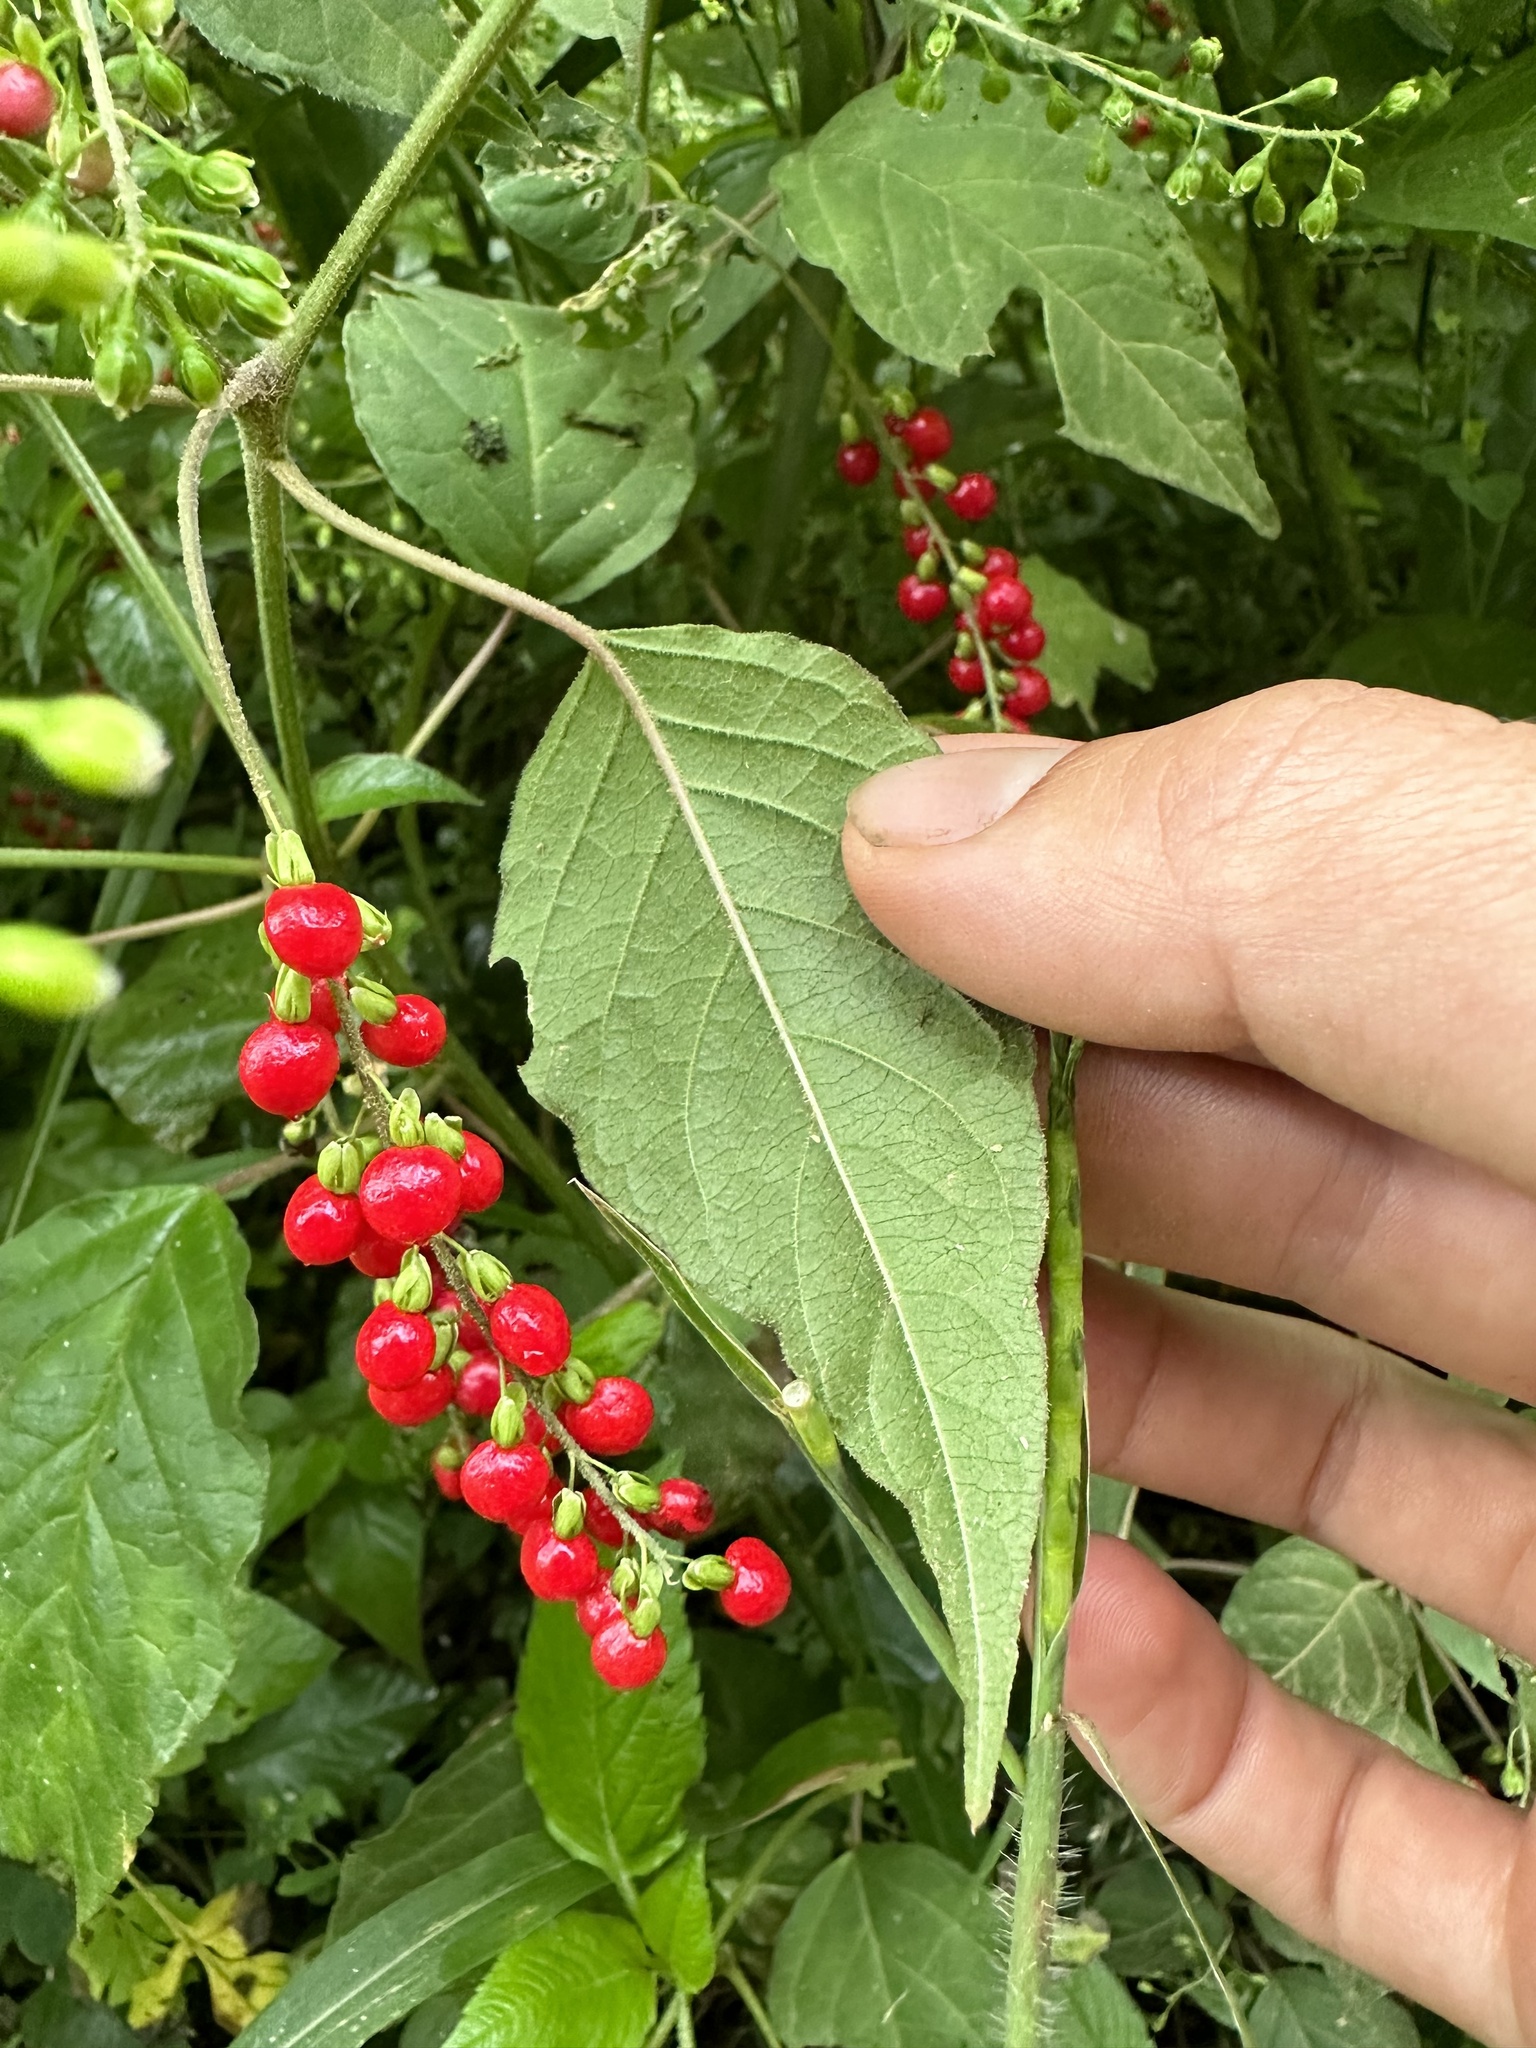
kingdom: Plantae
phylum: Tracheophyta
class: Magnoliopsida
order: Caryophyllales
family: Phytolaccaceae
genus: Rivina
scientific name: Rivina humilis
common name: Rougeplant
